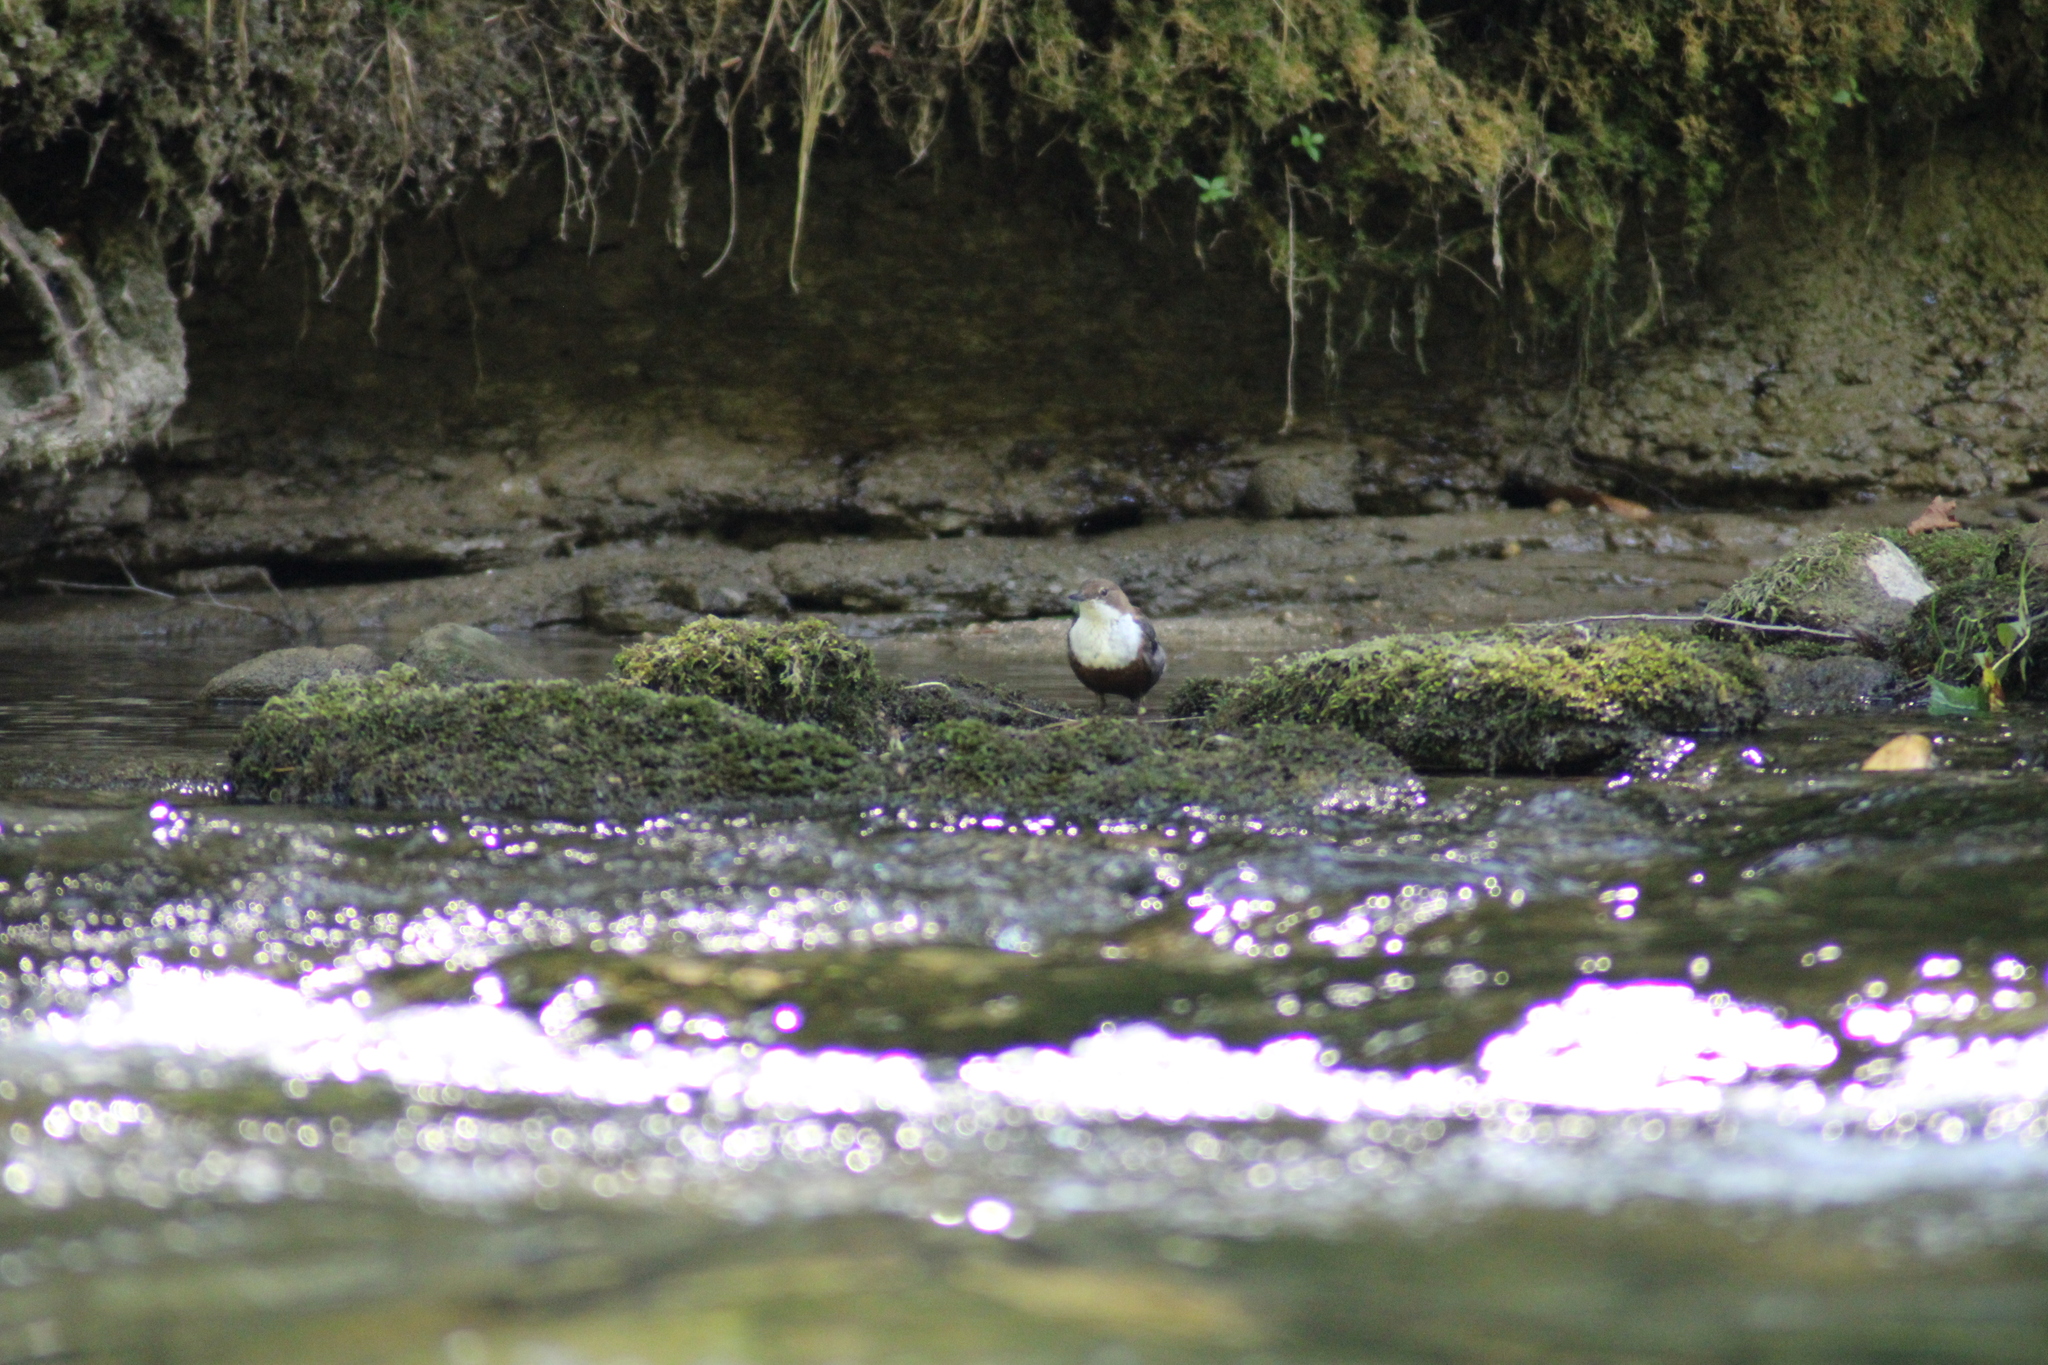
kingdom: Animalia
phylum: Chordata
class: Aves
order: Passeriformes
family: Cinclidae
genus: Cinclus
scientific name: Cinclus cinclus
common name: White-throated dipper
